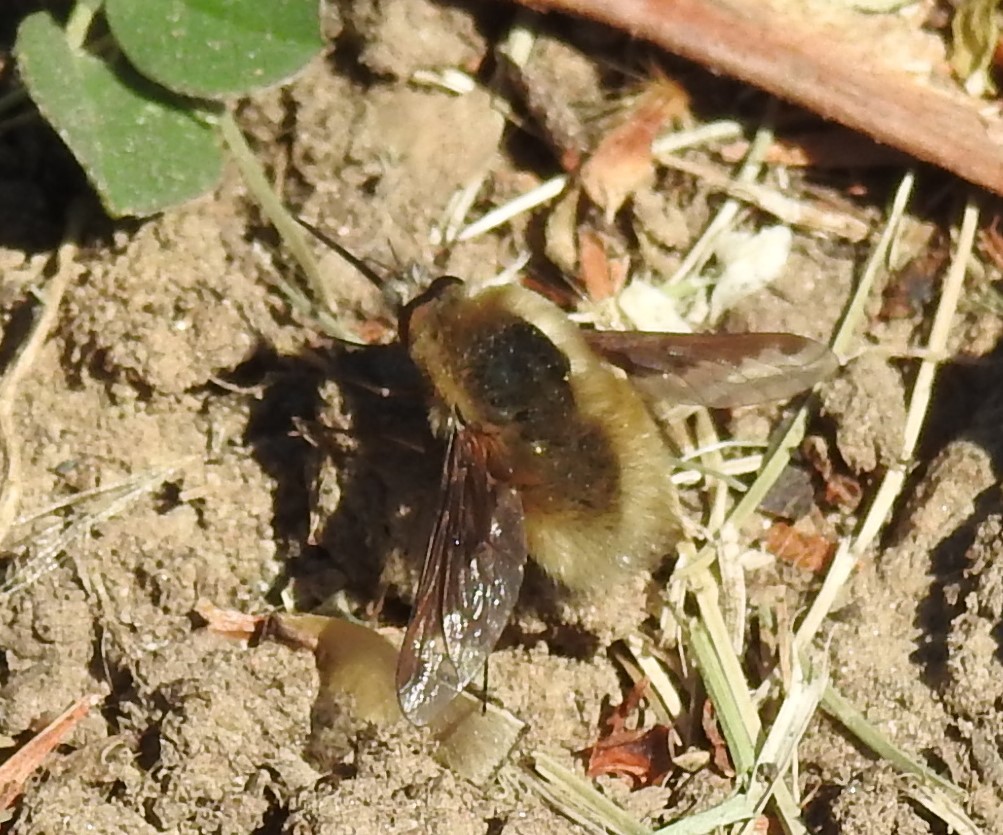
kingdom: Animalia
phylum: Arthropoda
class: Insecta
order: Diptera
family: Bombyliidae
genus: Bombylius
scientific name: Bombylius major
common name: Bee fly
